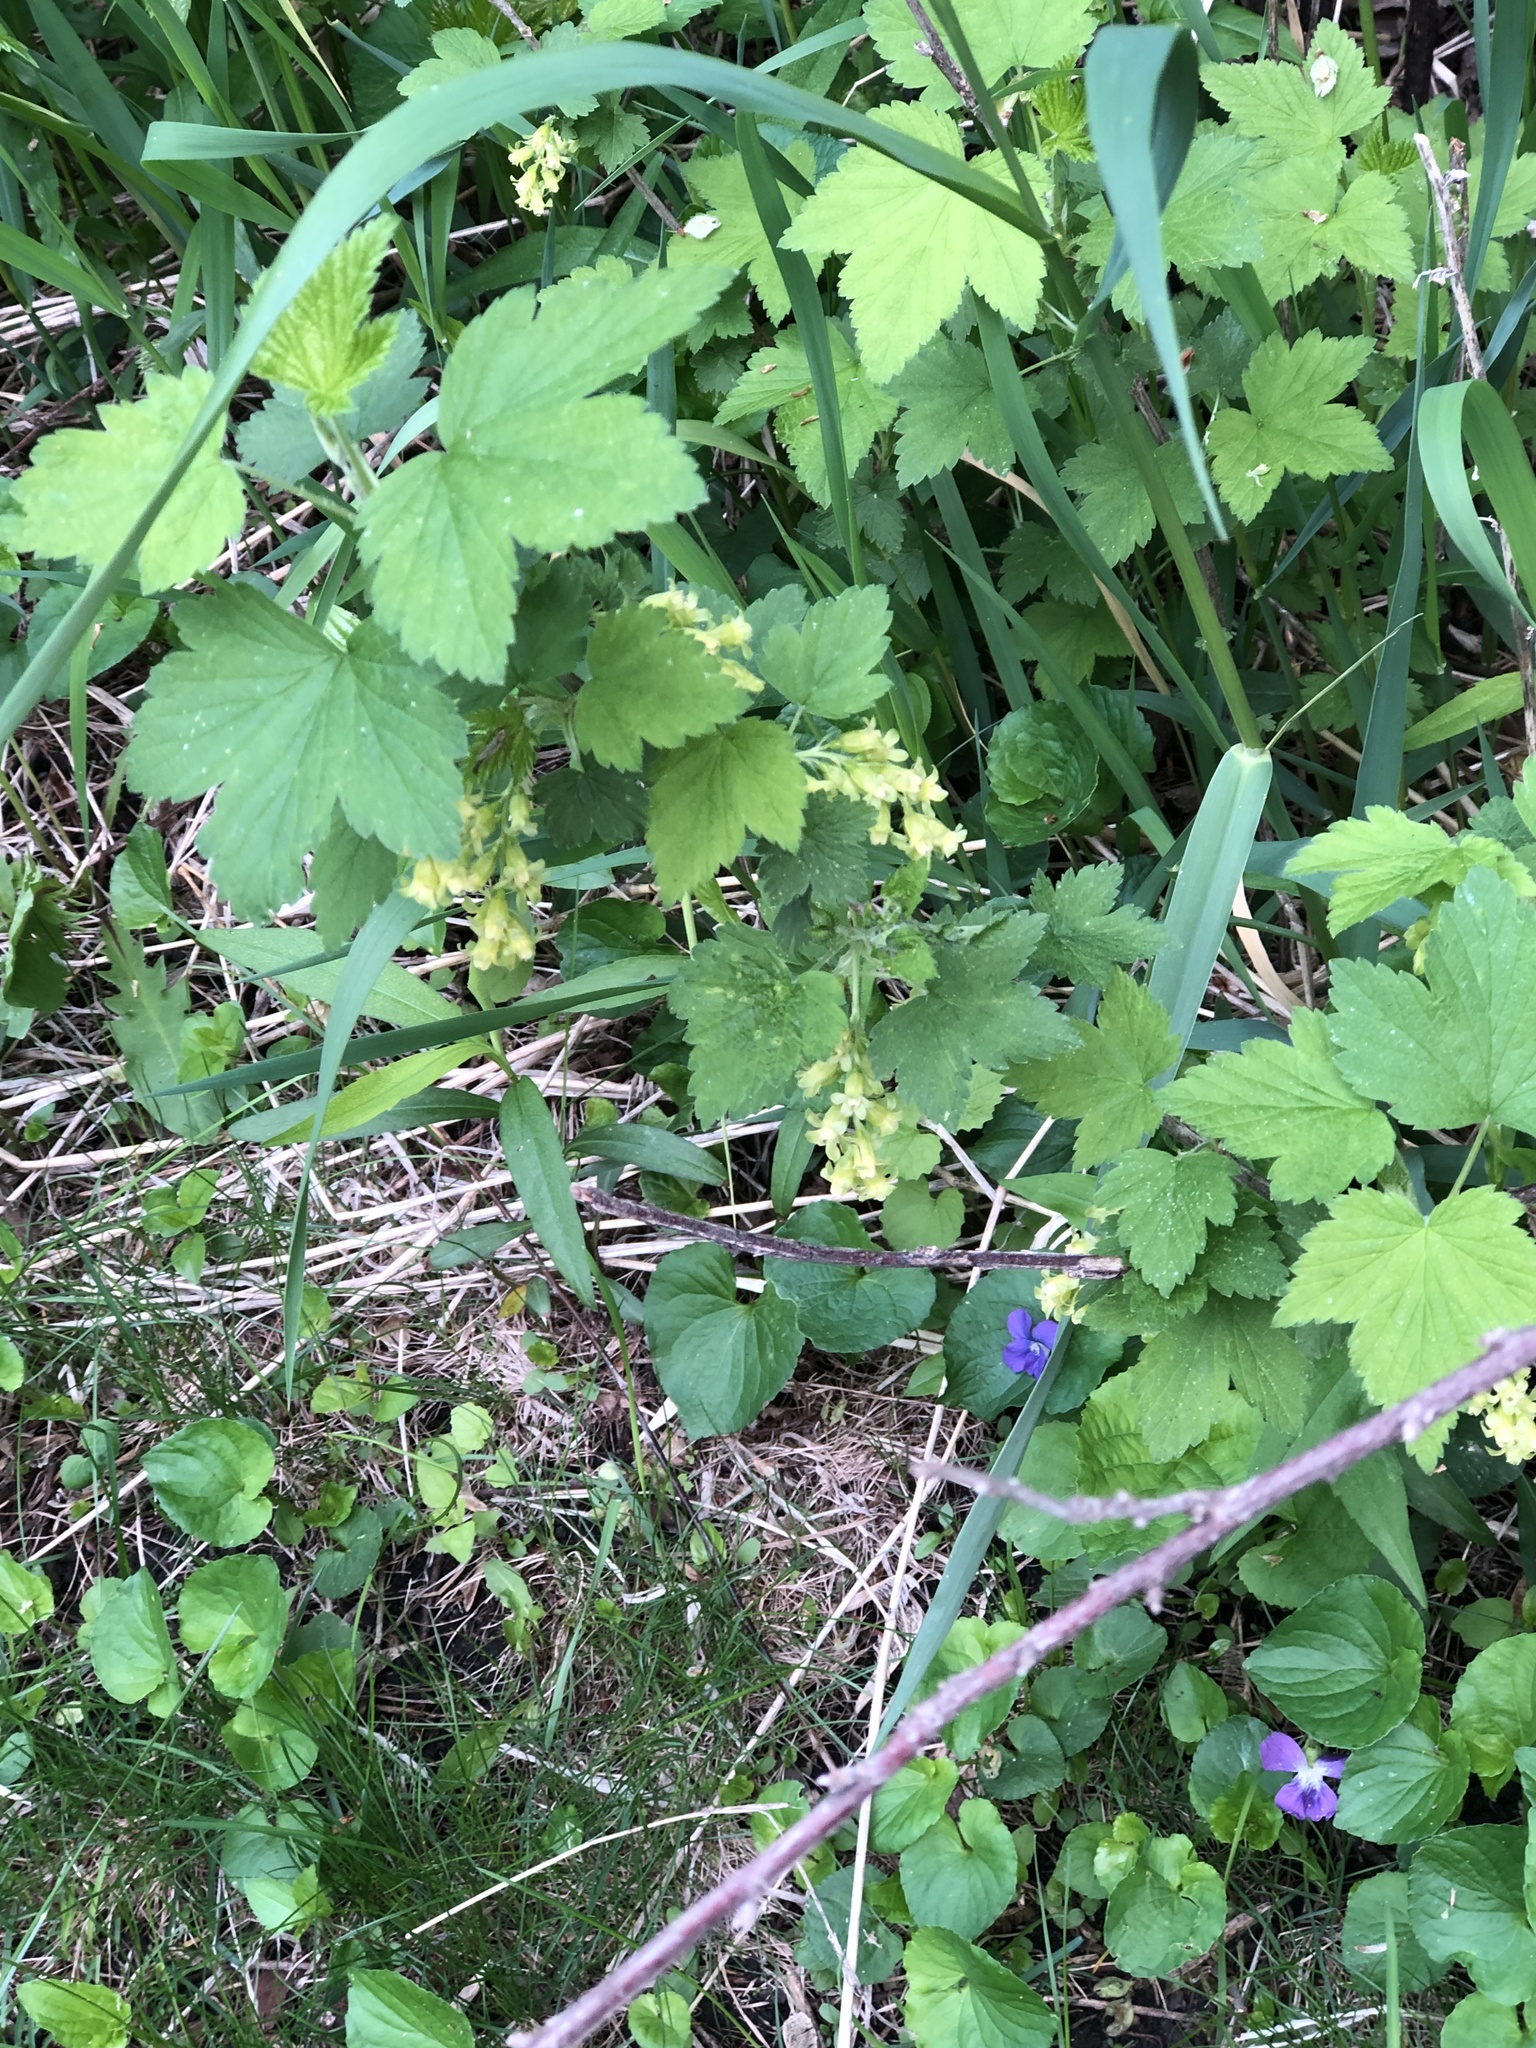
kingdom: Plantae
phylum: Tracheophyta
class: Magnoliopsida
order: Saxifragales
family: Grossulariaceae
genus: Ribes
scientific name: Ribes americanum
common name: American black currant
